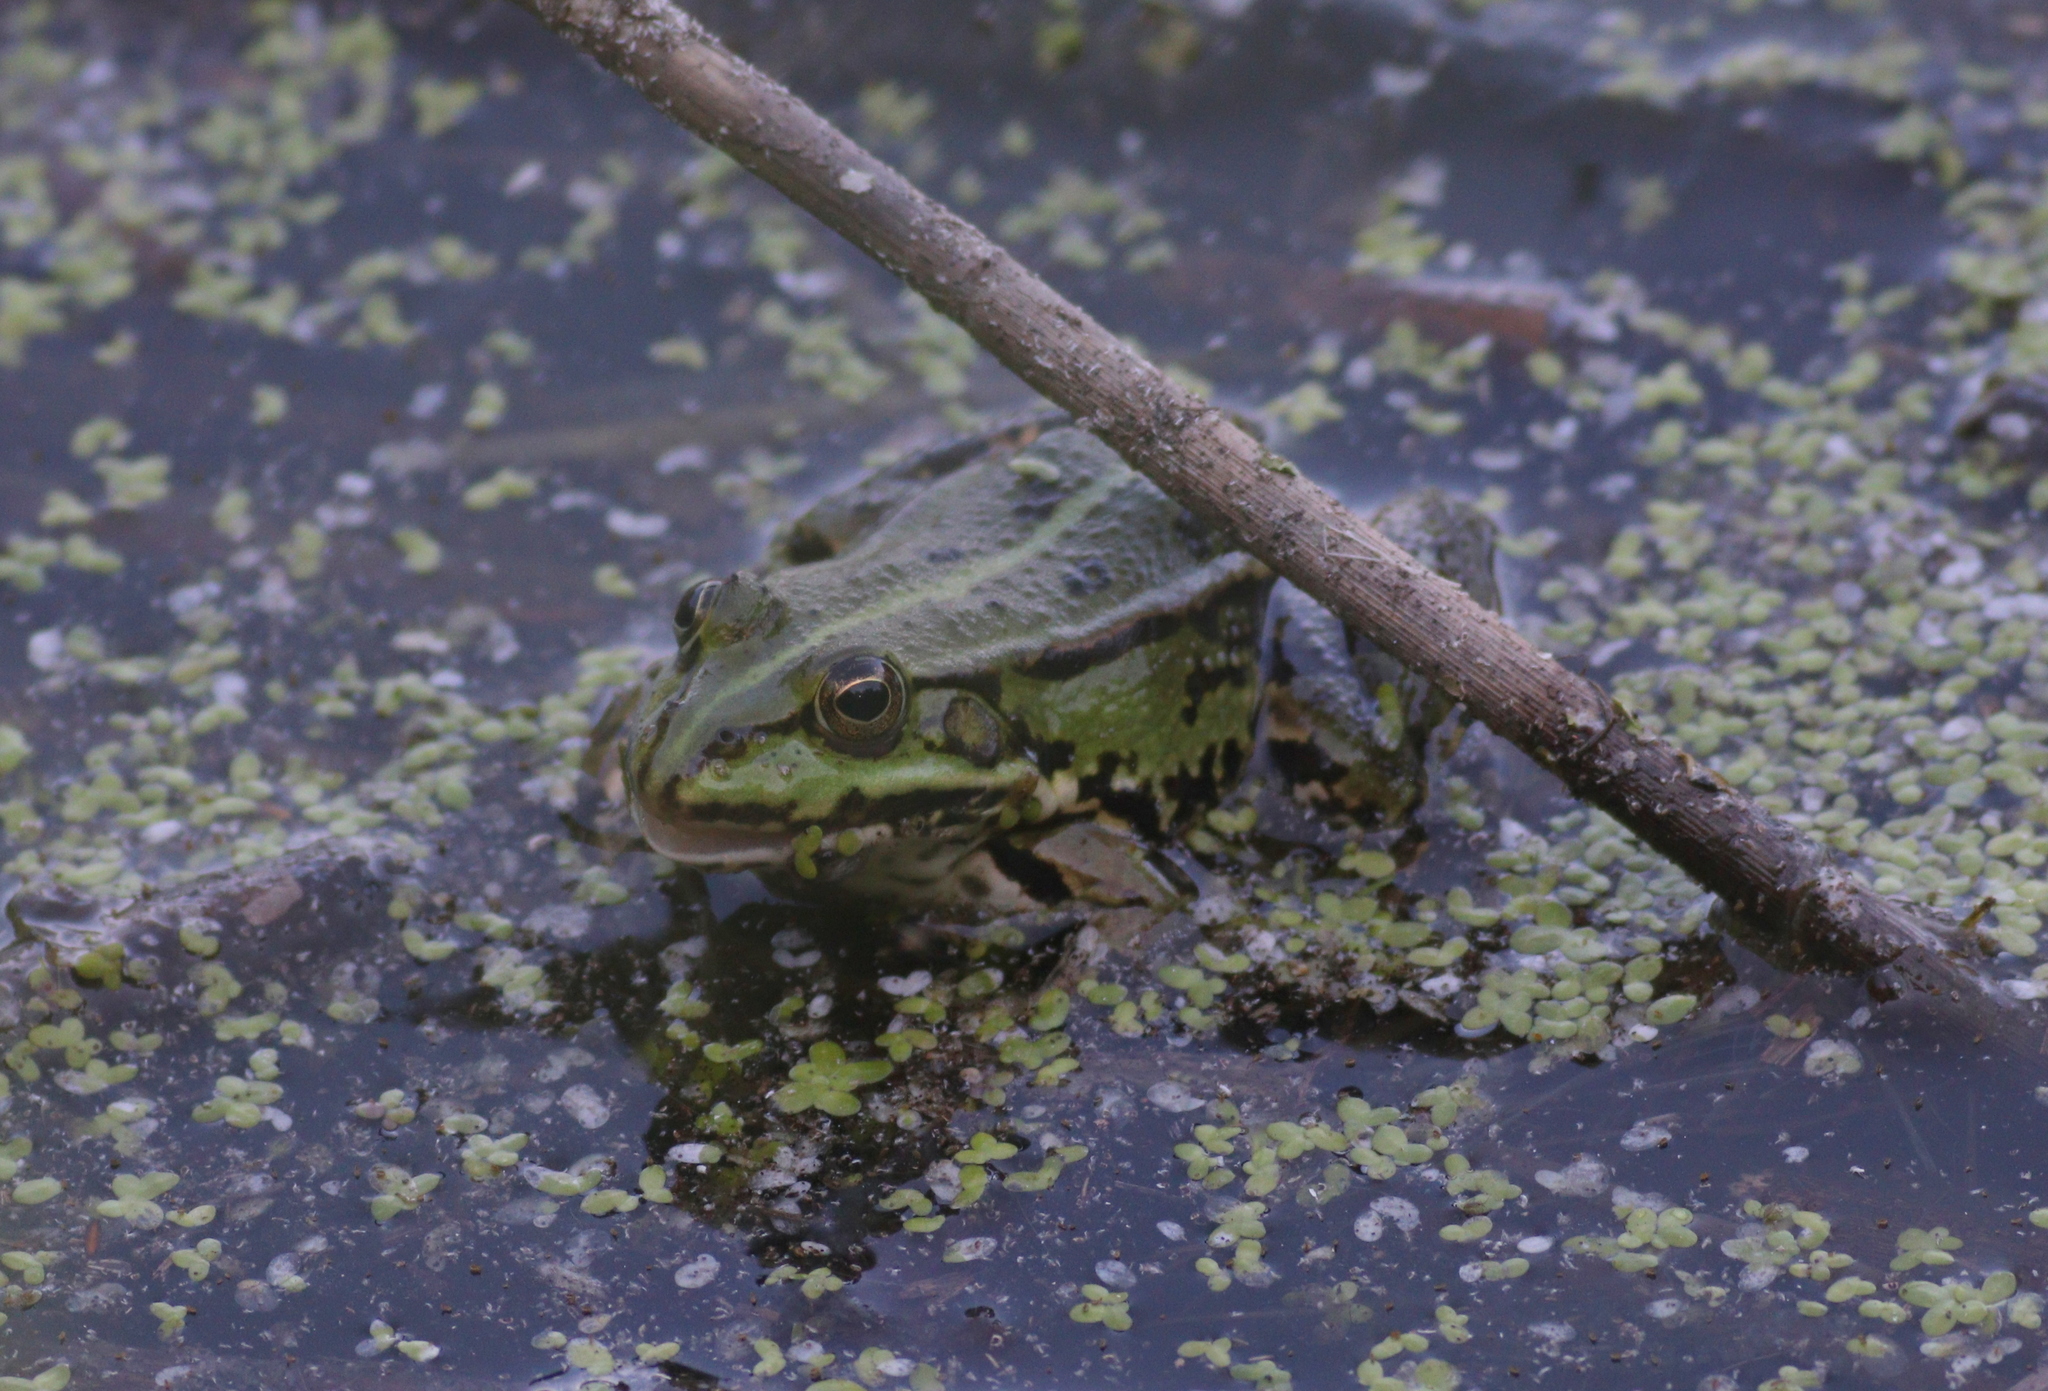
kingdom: Animalia
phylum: Chordata
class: Amphibia
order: Anura
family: Ranidae
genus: Pelophylax
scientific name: Pelophylax
